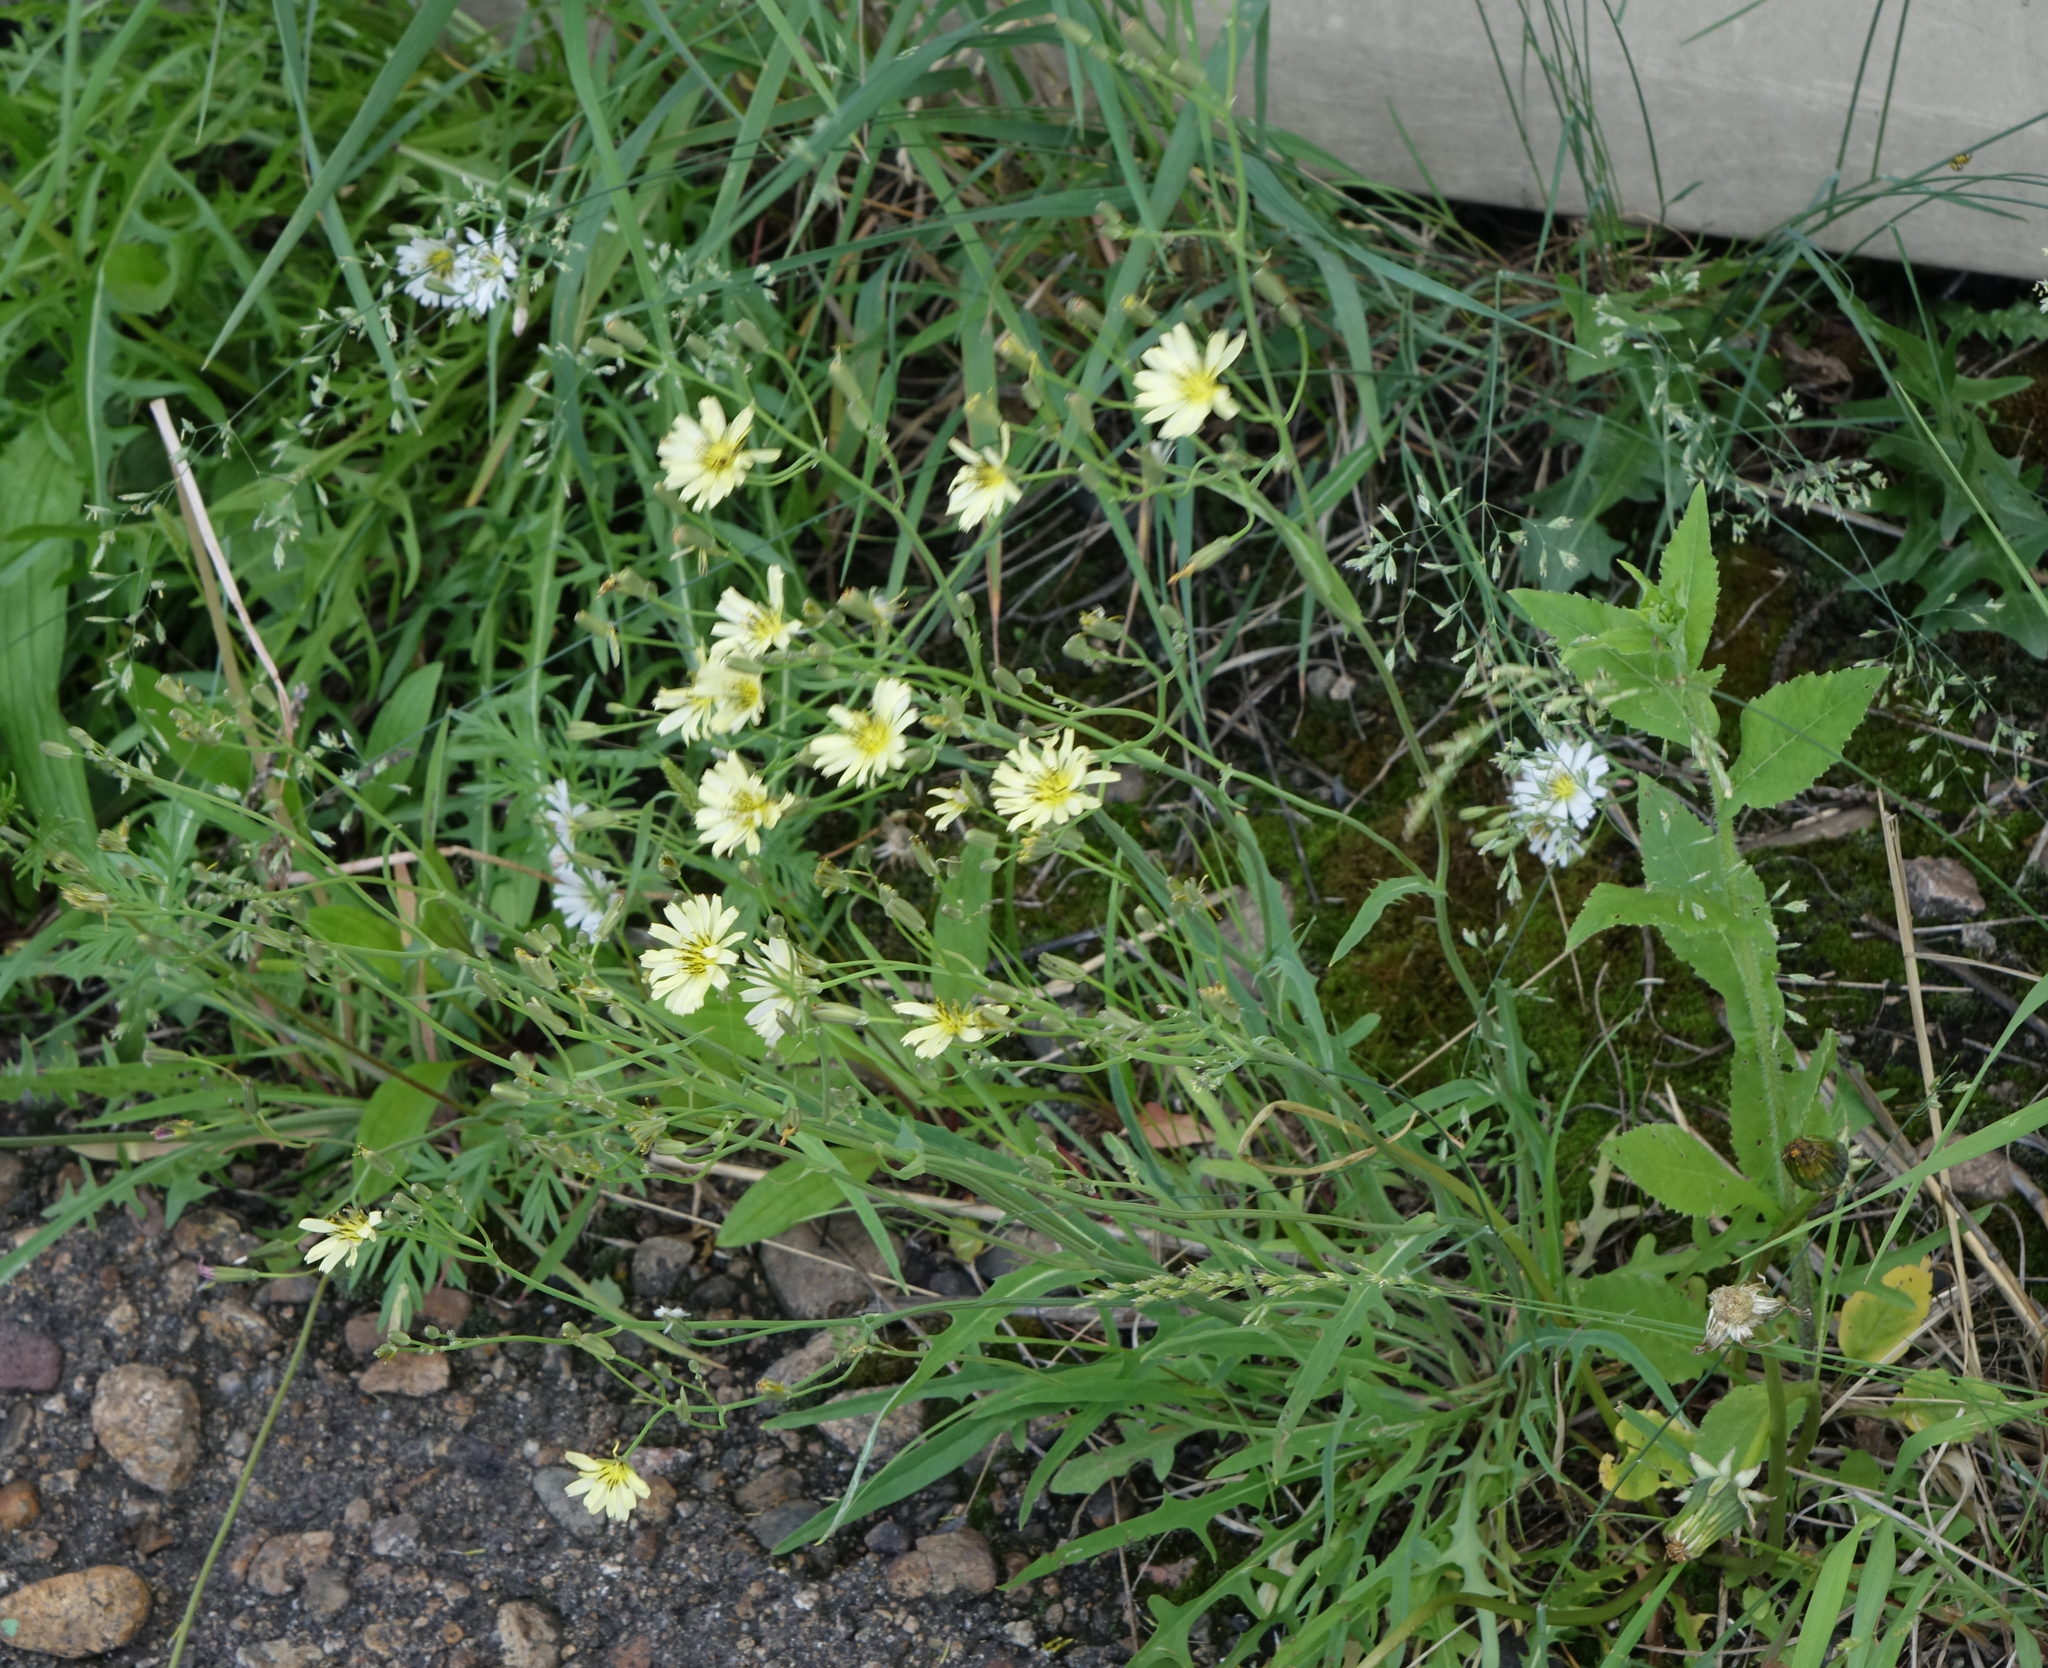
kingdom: Plantae
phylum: Tracheophyta
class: Magnoliopsida
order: Asterales
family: Asteraceae
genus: Ixeris
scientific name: Ixeris chinensis
